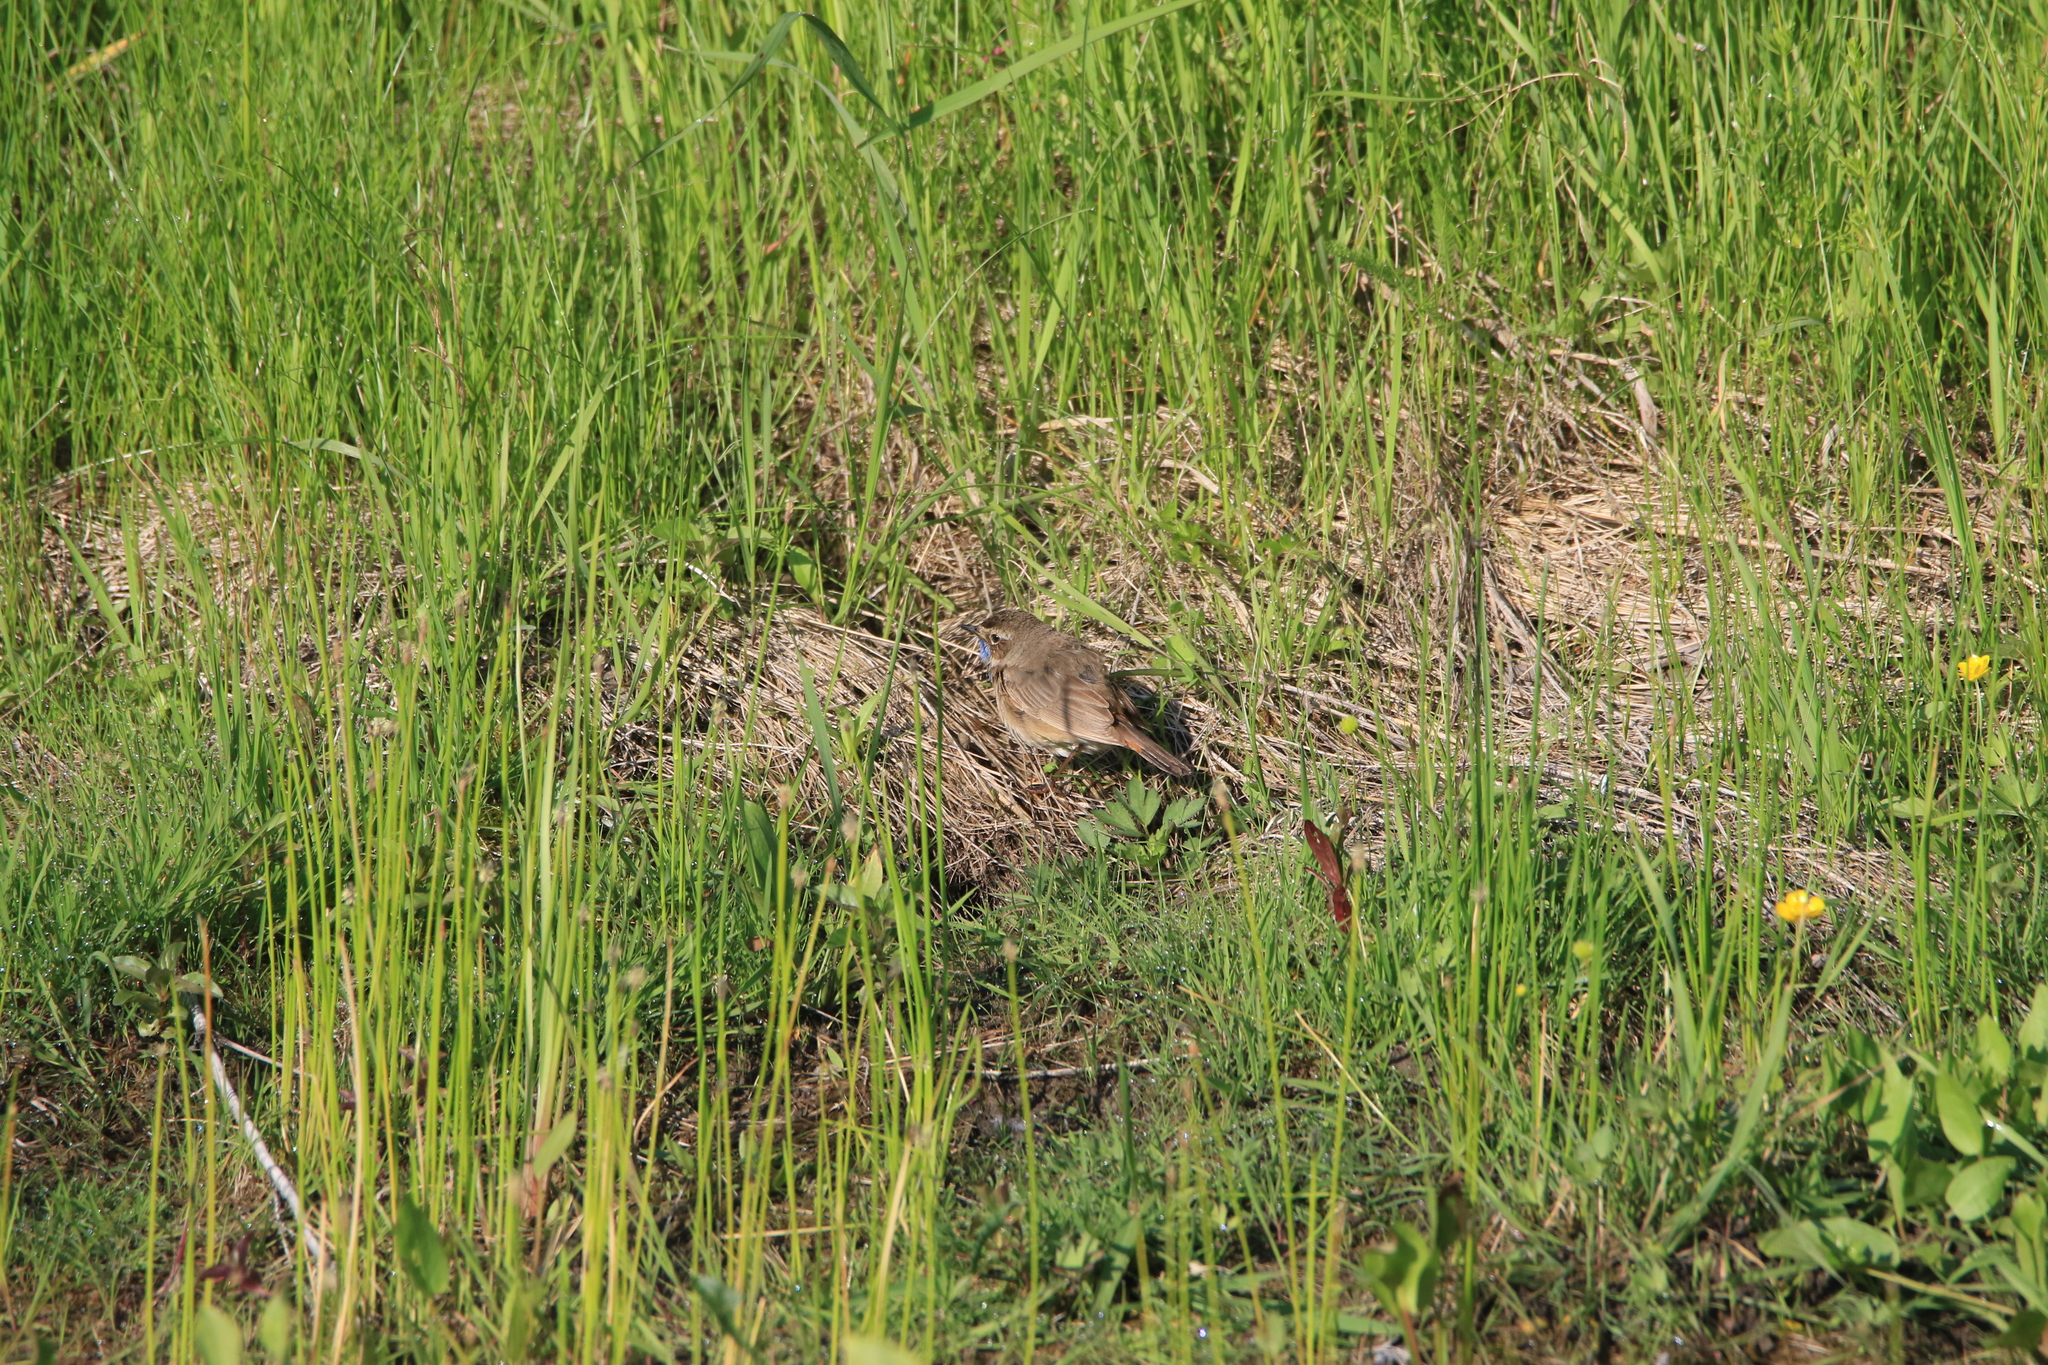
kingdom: Animalia
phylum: Chordata
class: Aves
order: Passeriformes
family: Muscicapidae
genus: Luscinia
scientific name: Luscinia svecica
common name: Bluethroat
